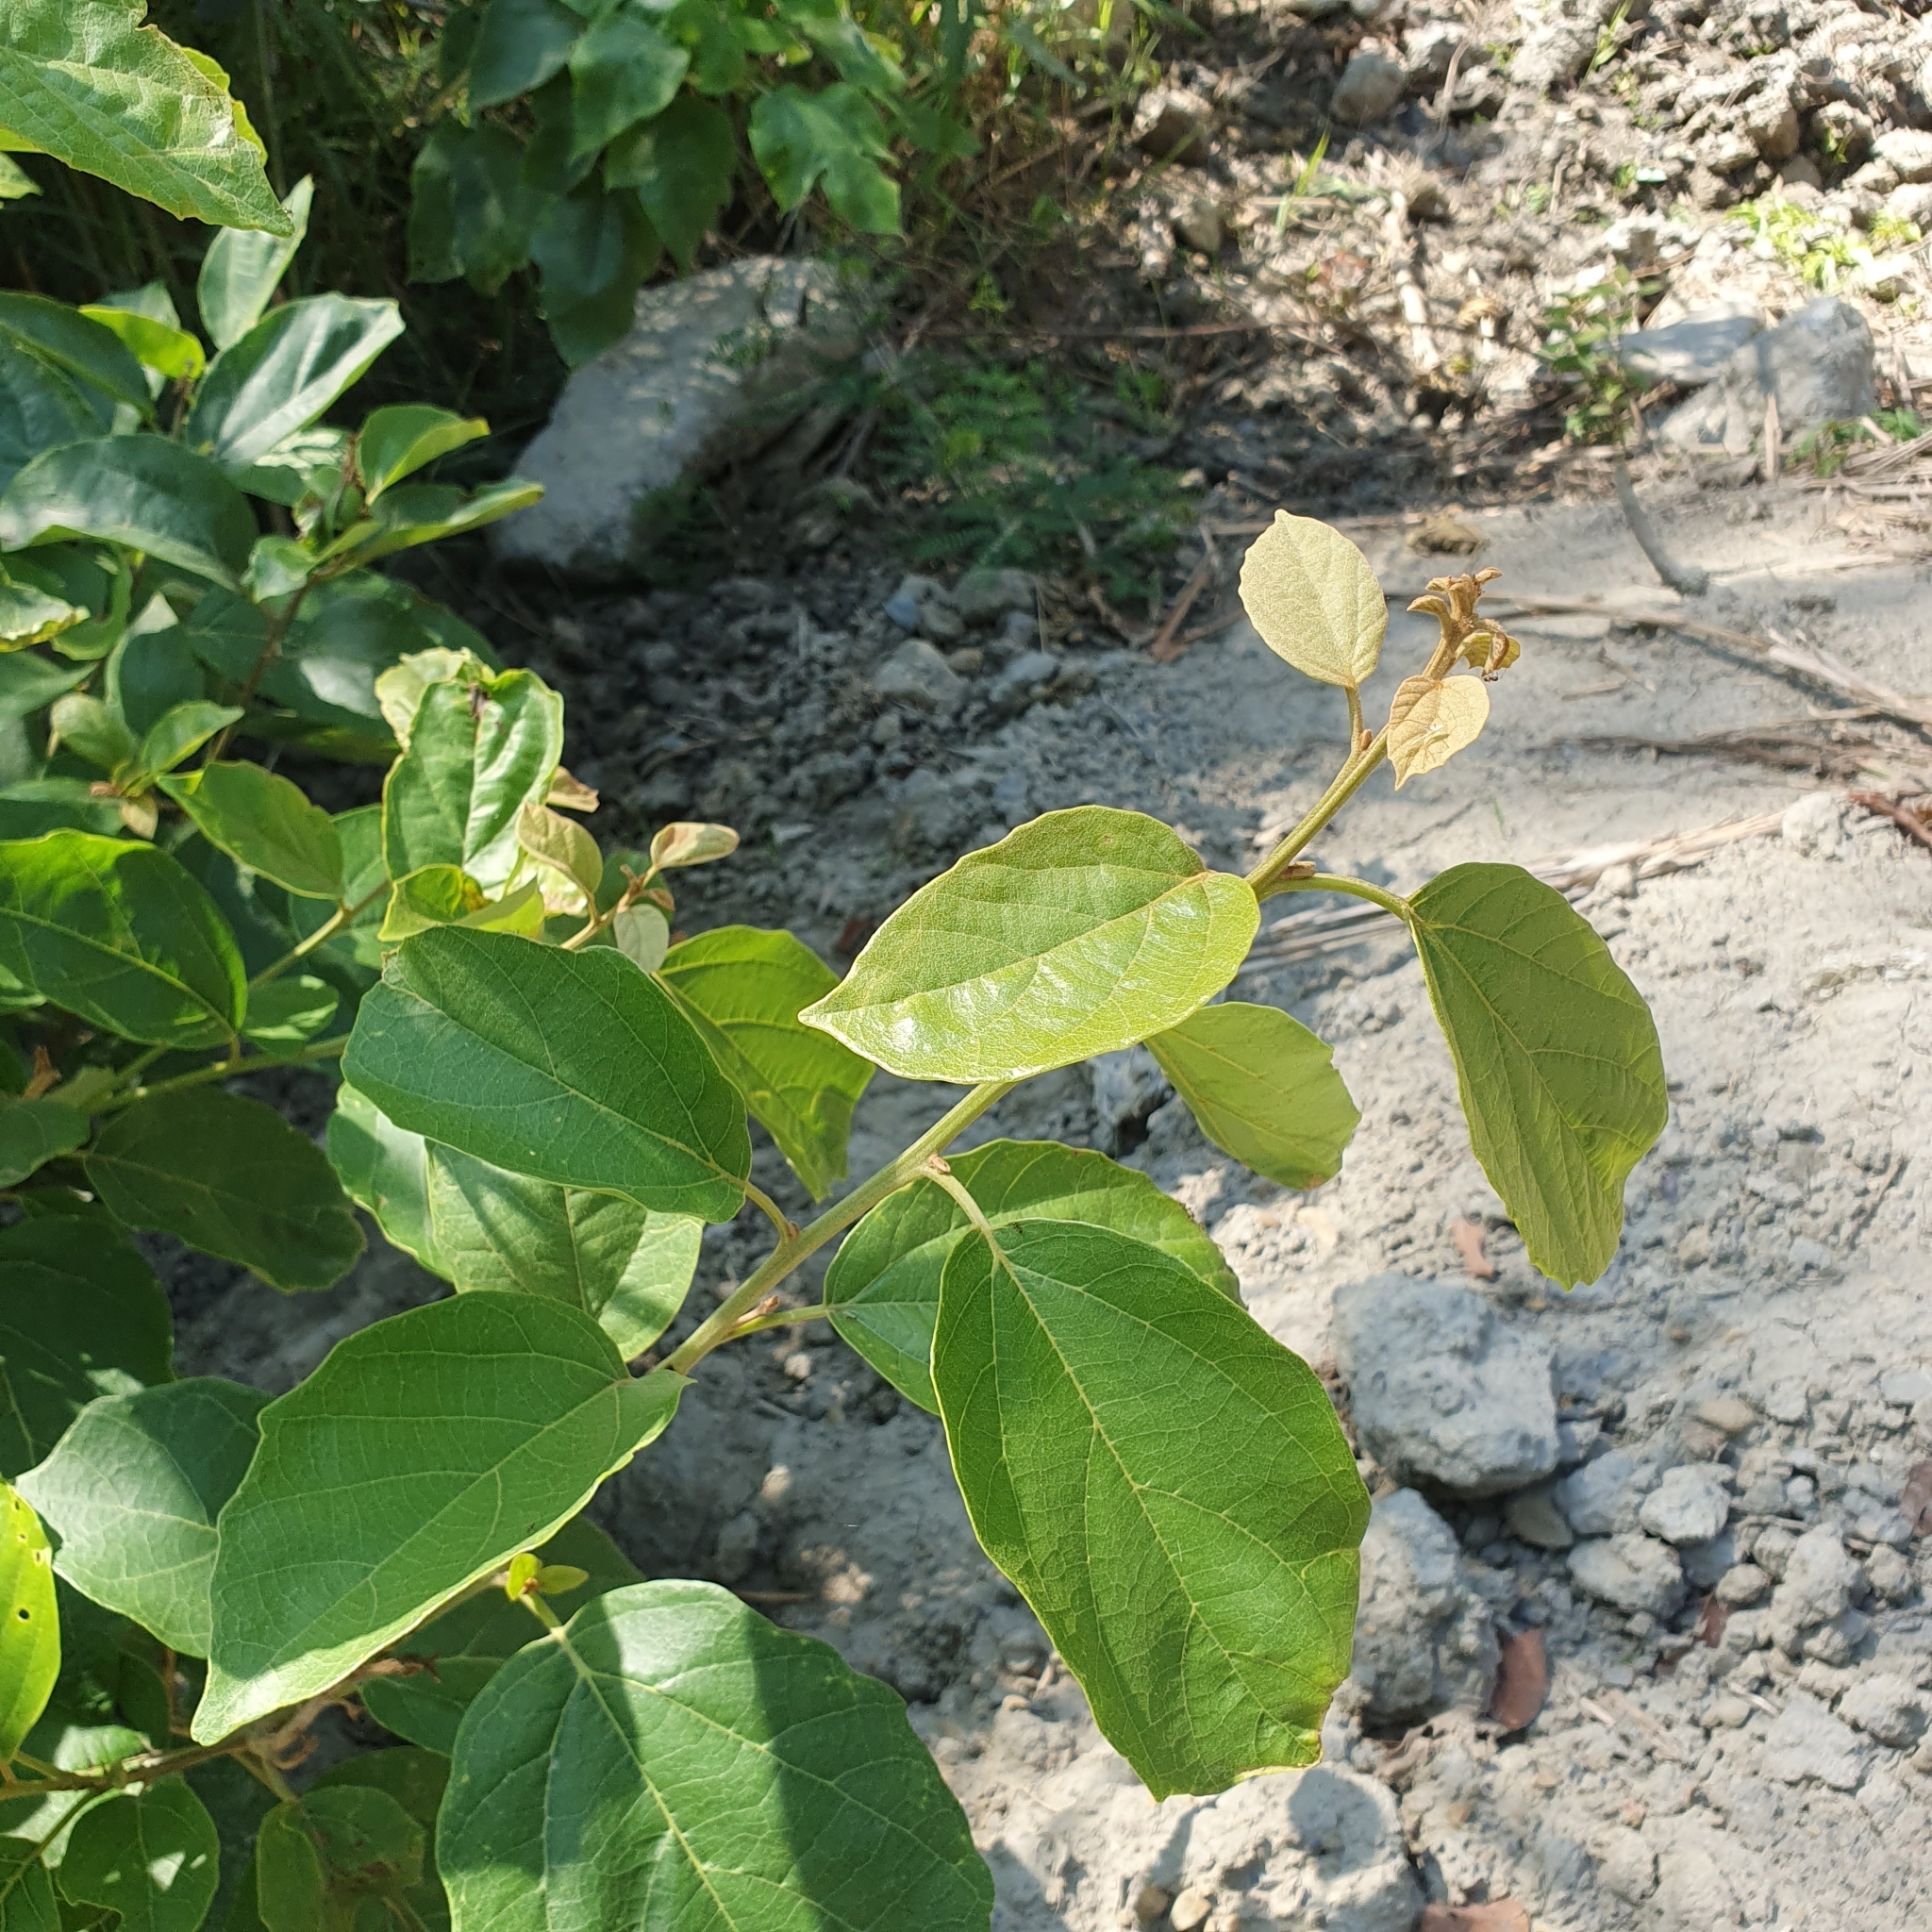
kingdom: Plantae
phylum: Tracheophyta
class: Magnoliopsida
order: Boraginales
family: Cordiaceae
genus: Cordia
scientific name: Cordia dichotoma
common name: Fragrant manjack
